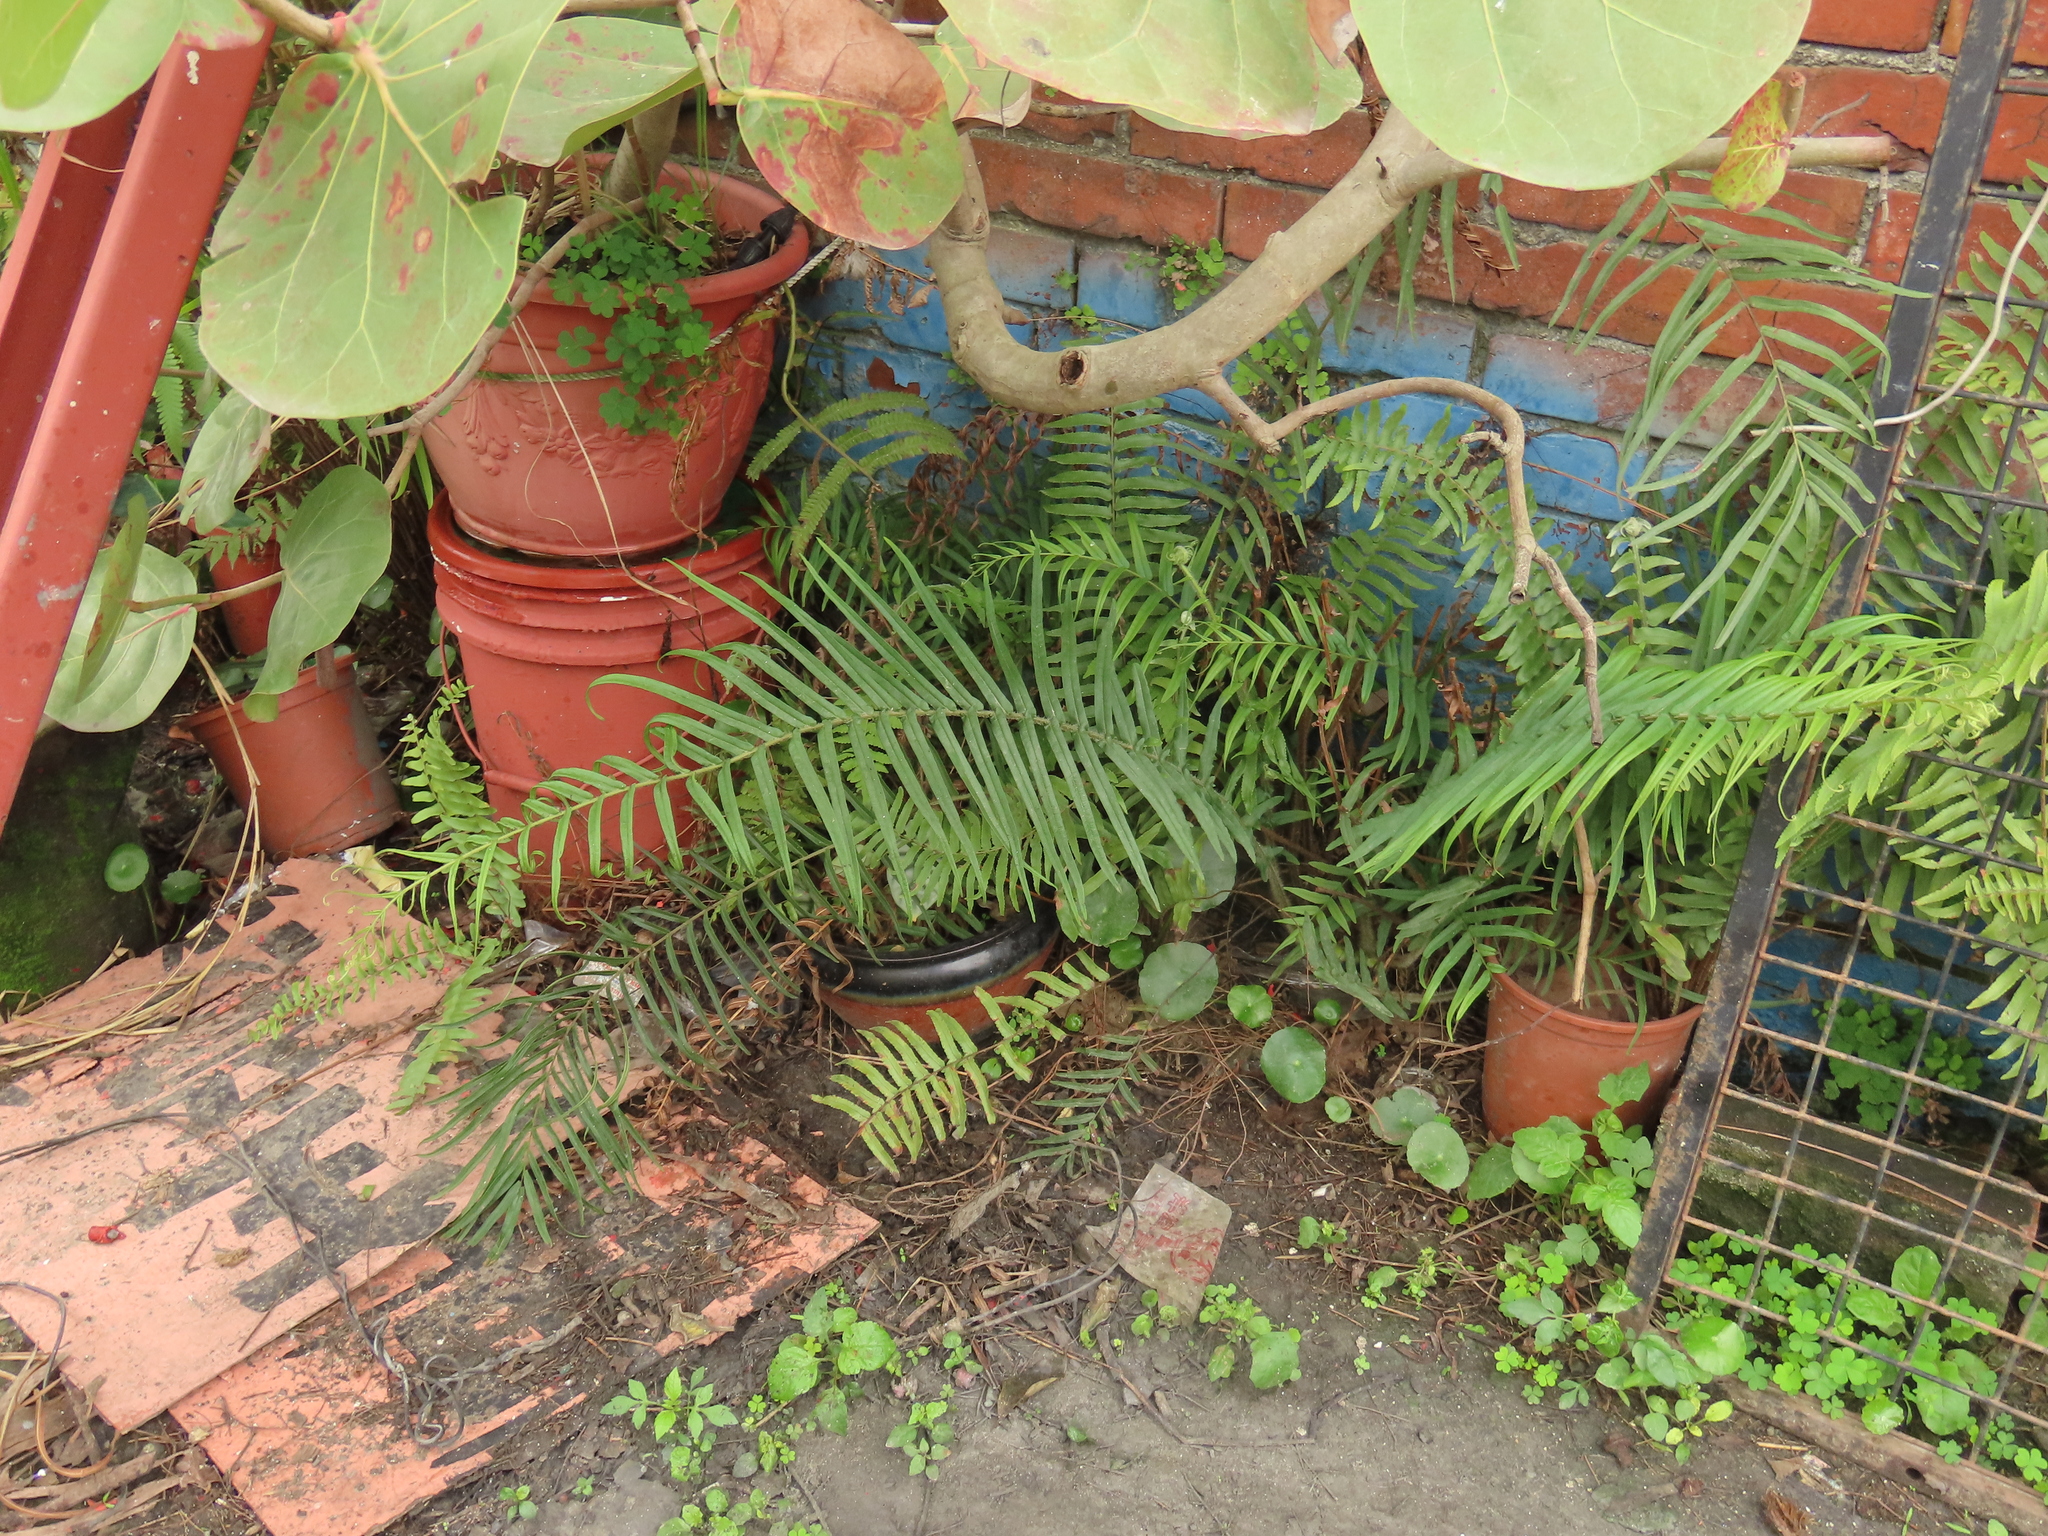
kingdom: Plantae
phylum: Tracheophyta
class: Polypodiopsida
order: Polypodiales
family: Pteridaceae
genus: Pteris
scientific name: Pteris vittata
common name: Ladder brake
